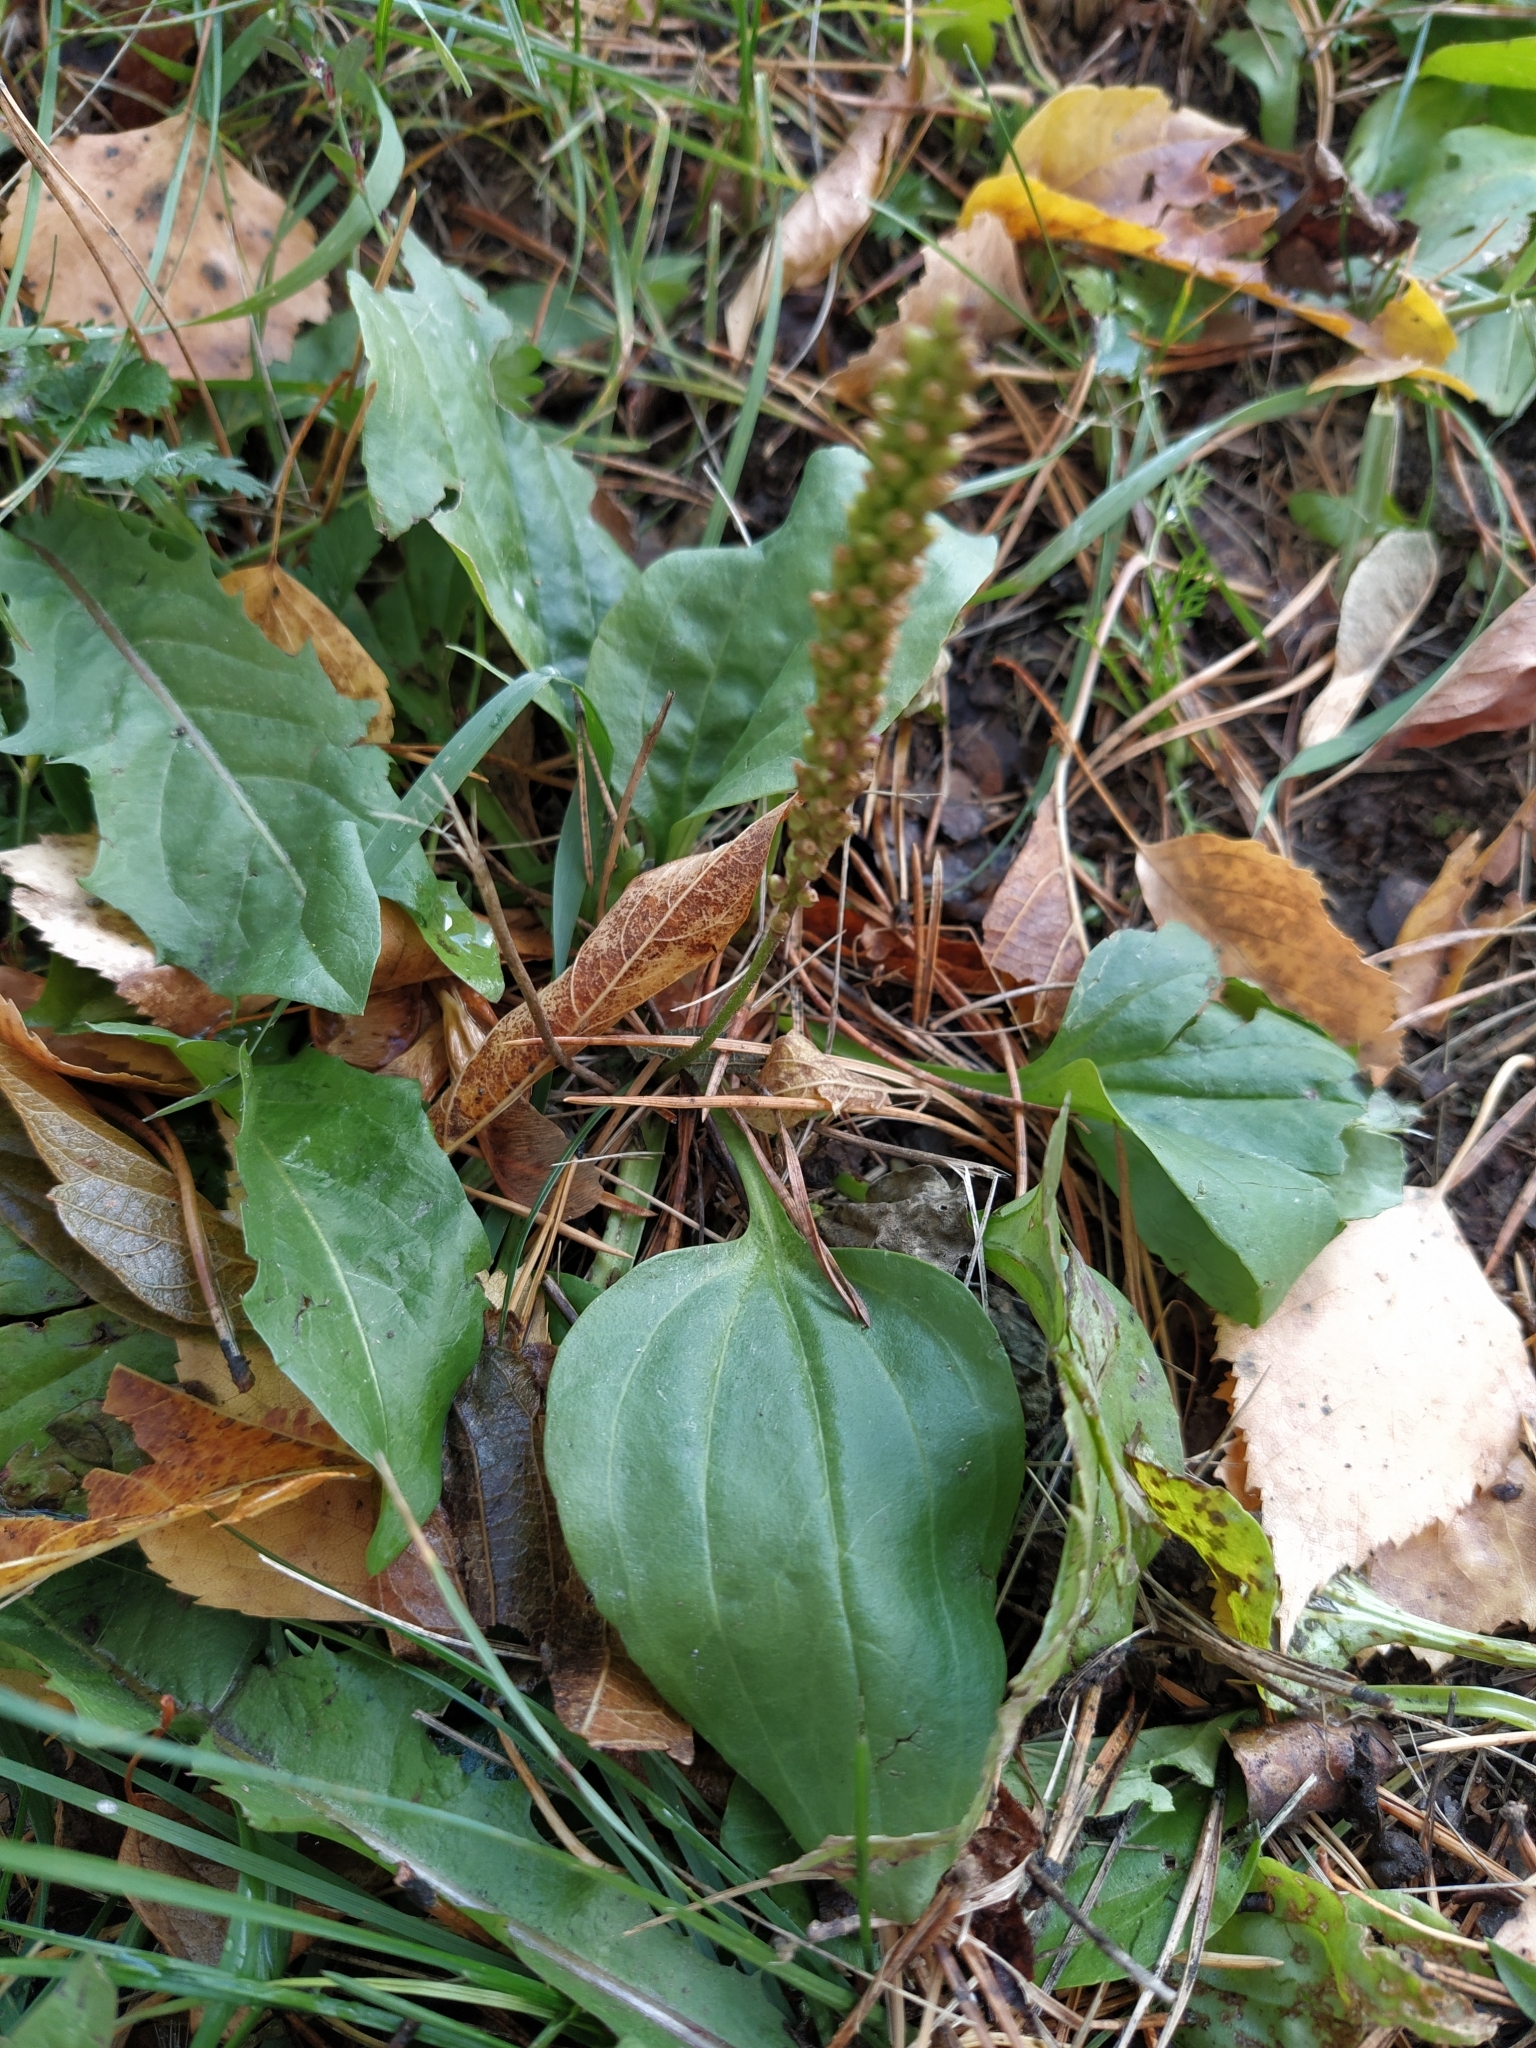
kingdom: Plantae
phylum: Tracheophyta
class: Magnoliopsida
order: Lamiales
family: Plantaginaceae
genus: Plantago
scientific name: Plantago major
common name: Common plantain
